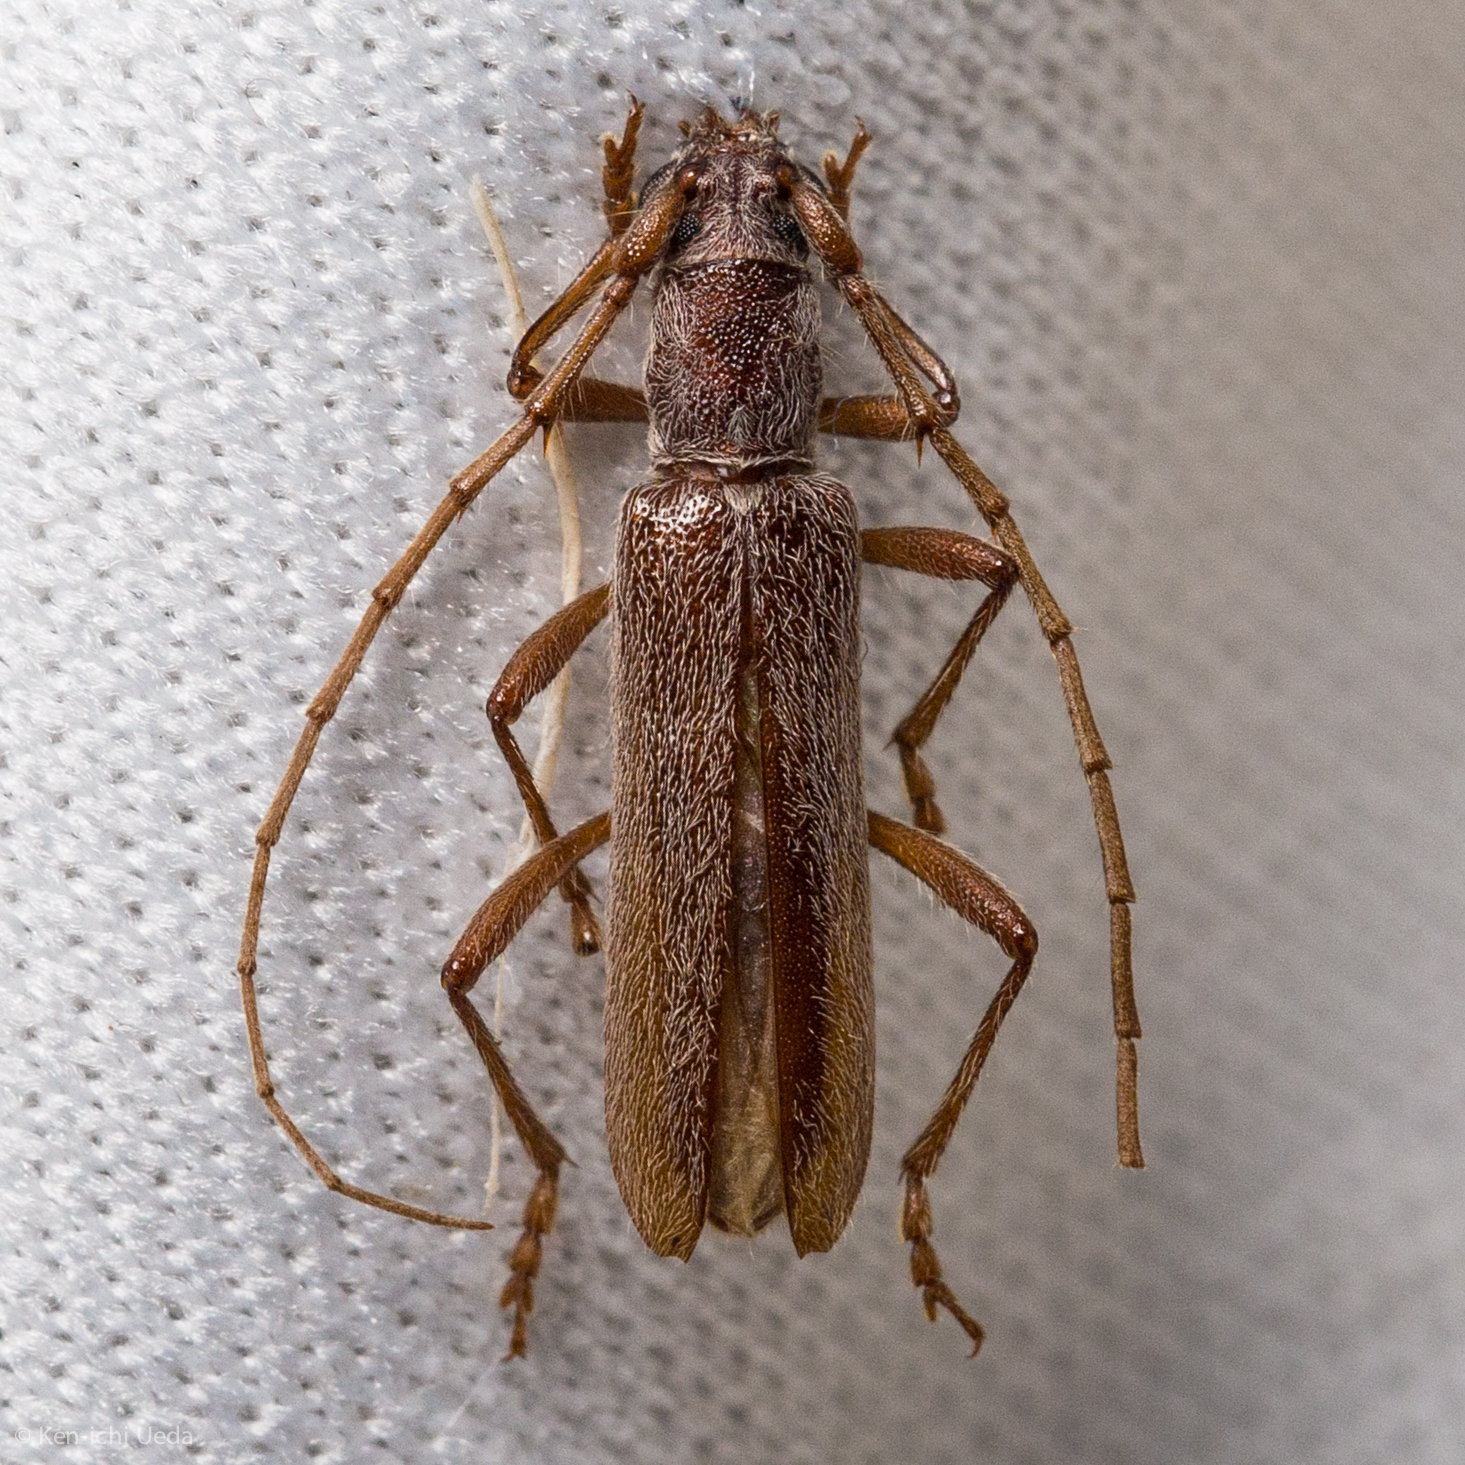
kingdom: Animalia
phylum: Arthropoda
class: Insecta
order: Coleoptera
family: Cerambycidae
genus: Aneflomorpha
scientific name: Aneflomorpha lineare
